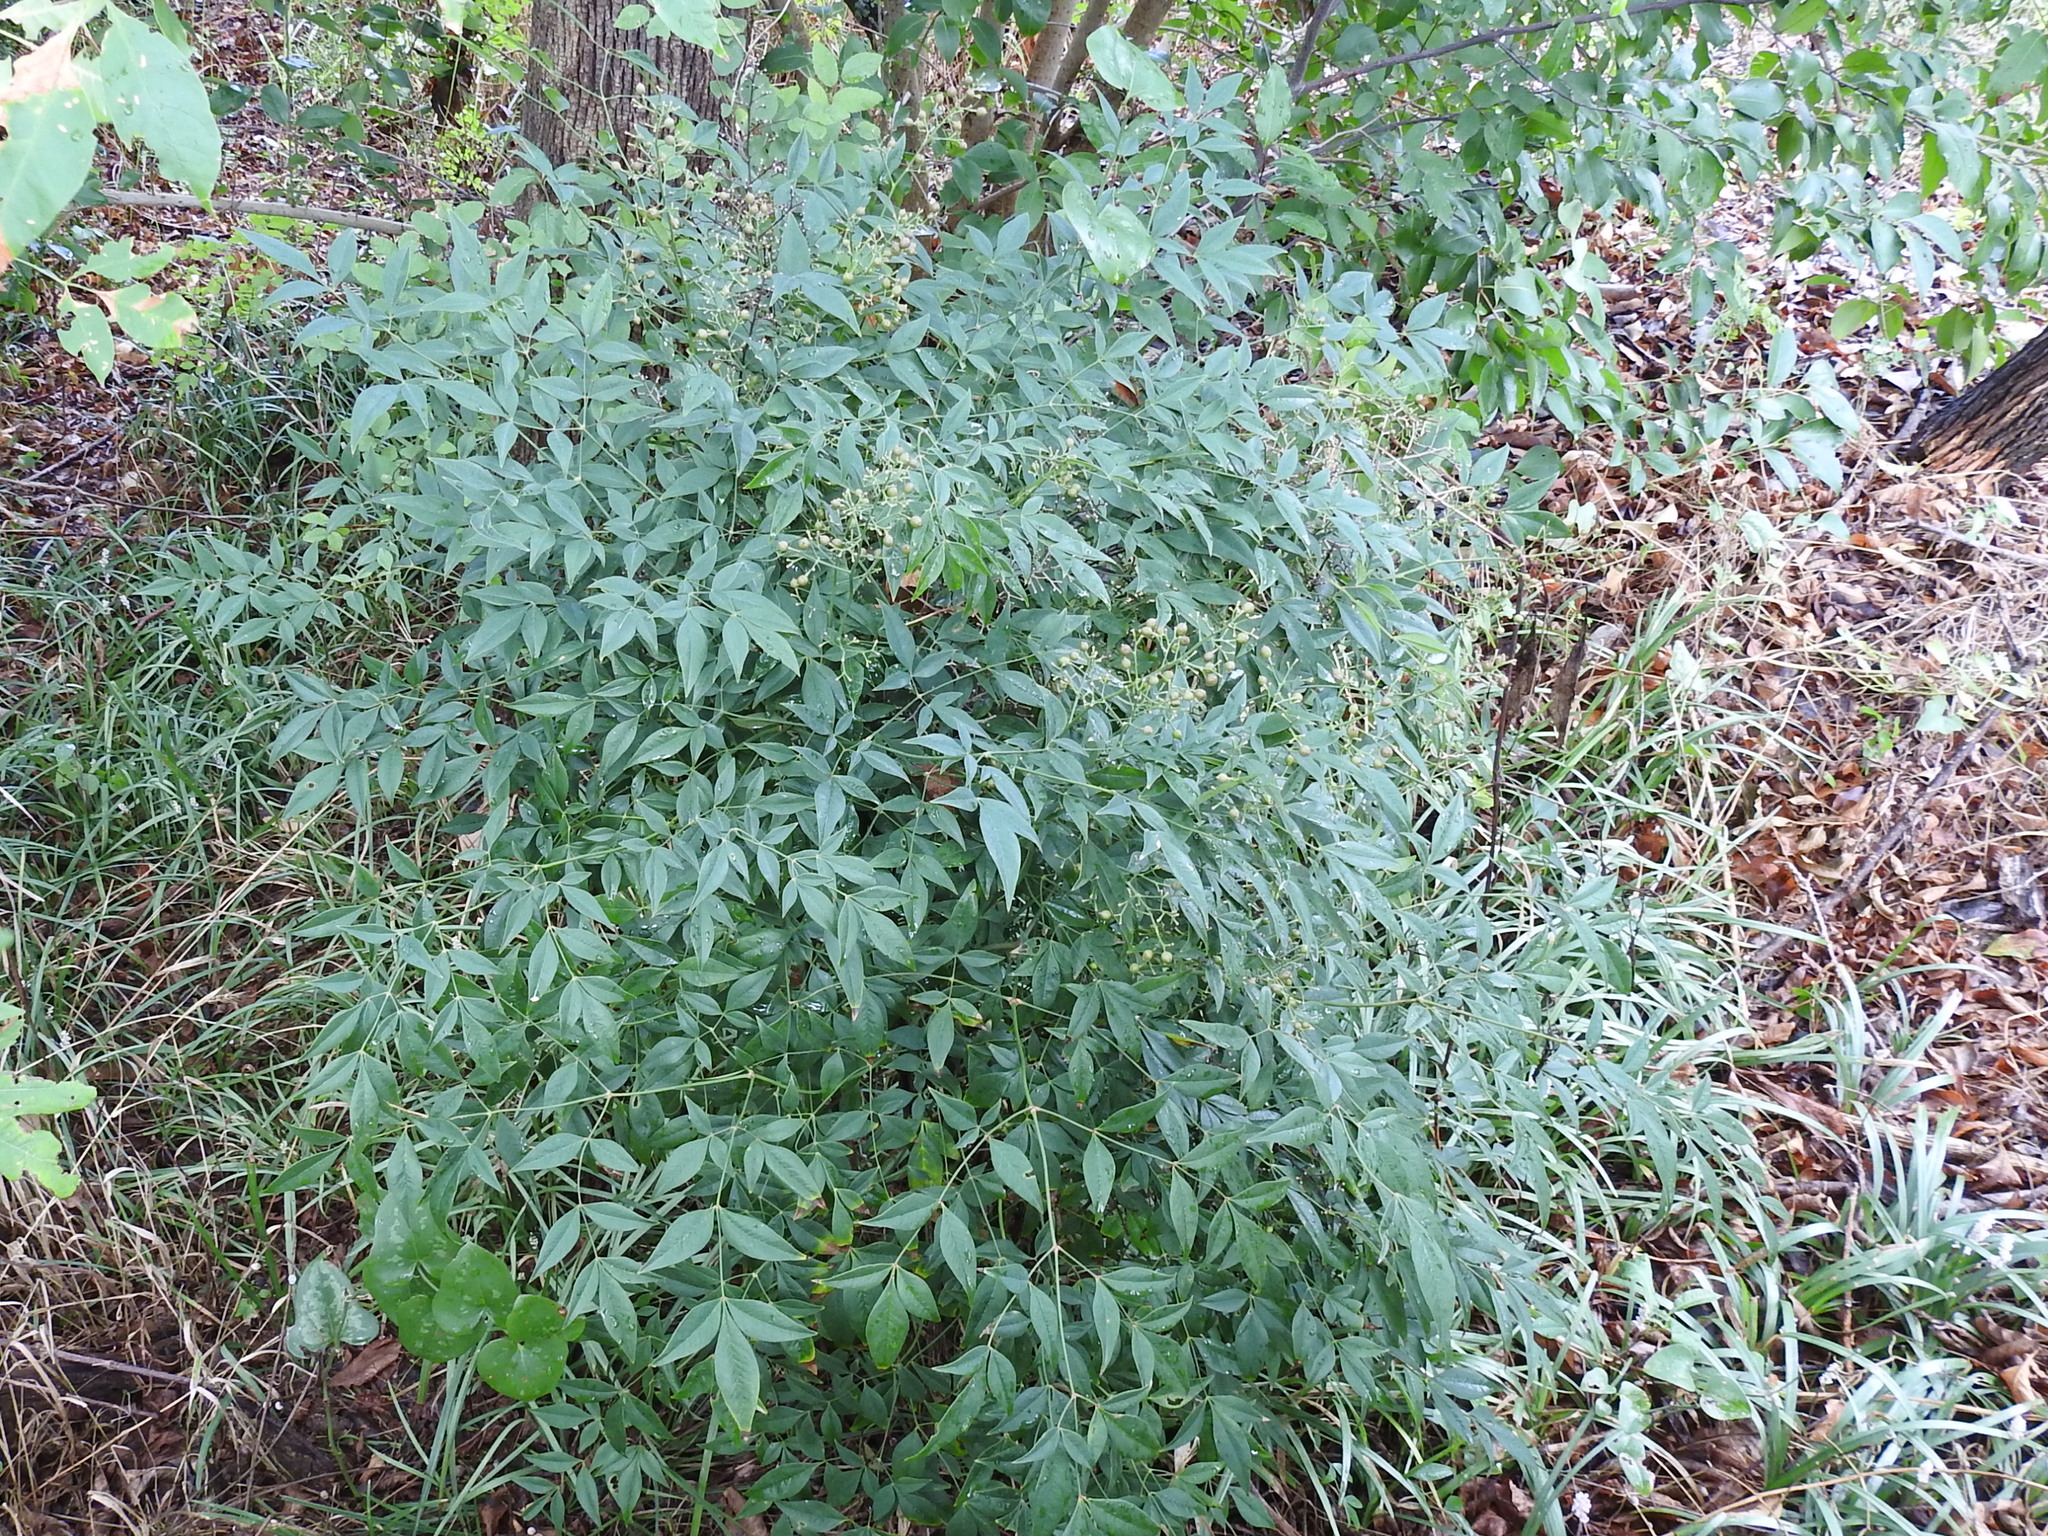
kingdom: Plantae
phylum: Tracheophyta
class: Magnoliopsida
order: Ranunculales
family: Berberidaceae
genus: Nandina
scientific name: Nandina domestica
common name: Sacred bamboo
